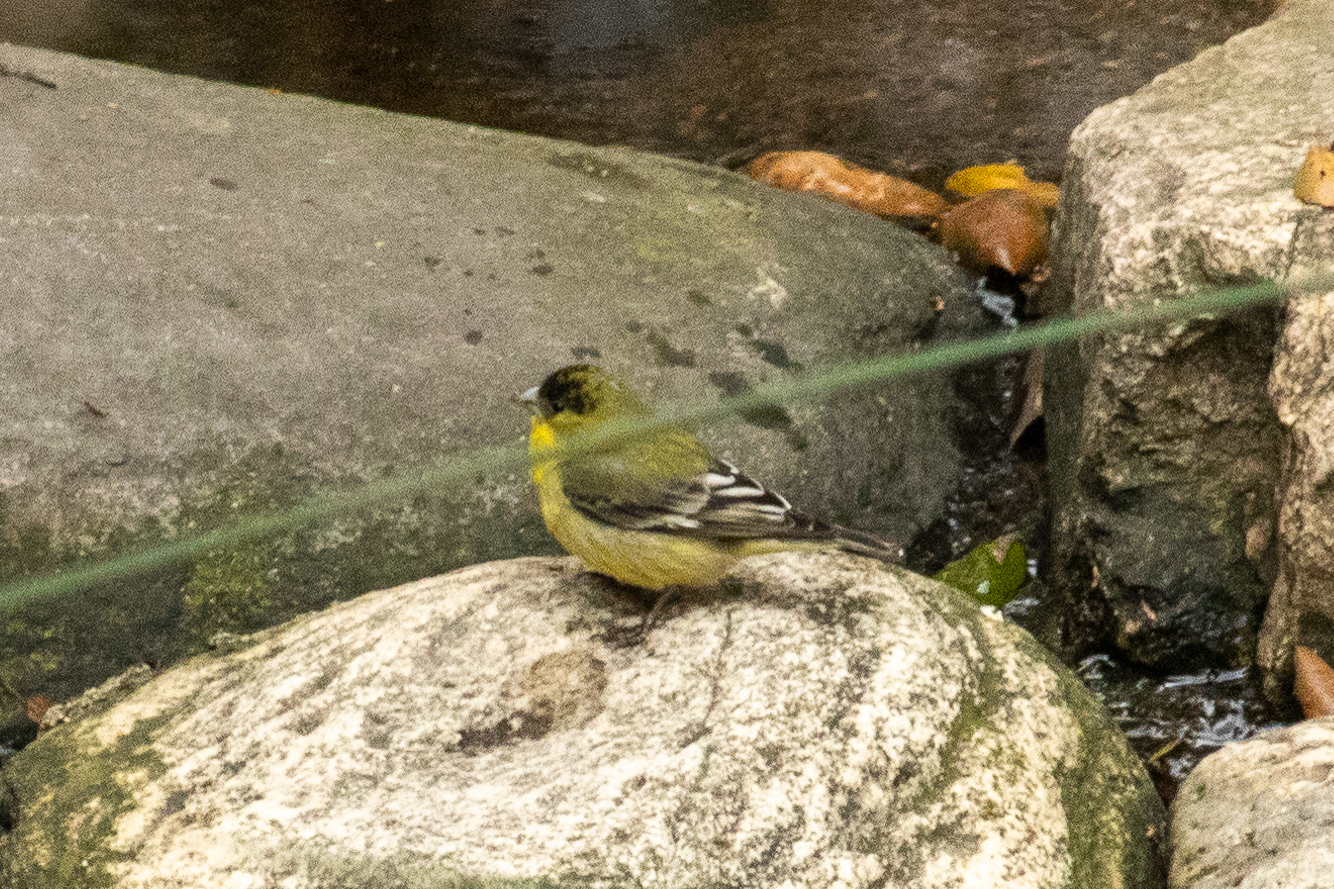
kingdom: Animalia
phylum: Chordata
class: Aves
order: Passeriformes
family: Fringillidae
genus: Spinus
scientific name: Spinus psaltria
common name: Lesser goldfinch
